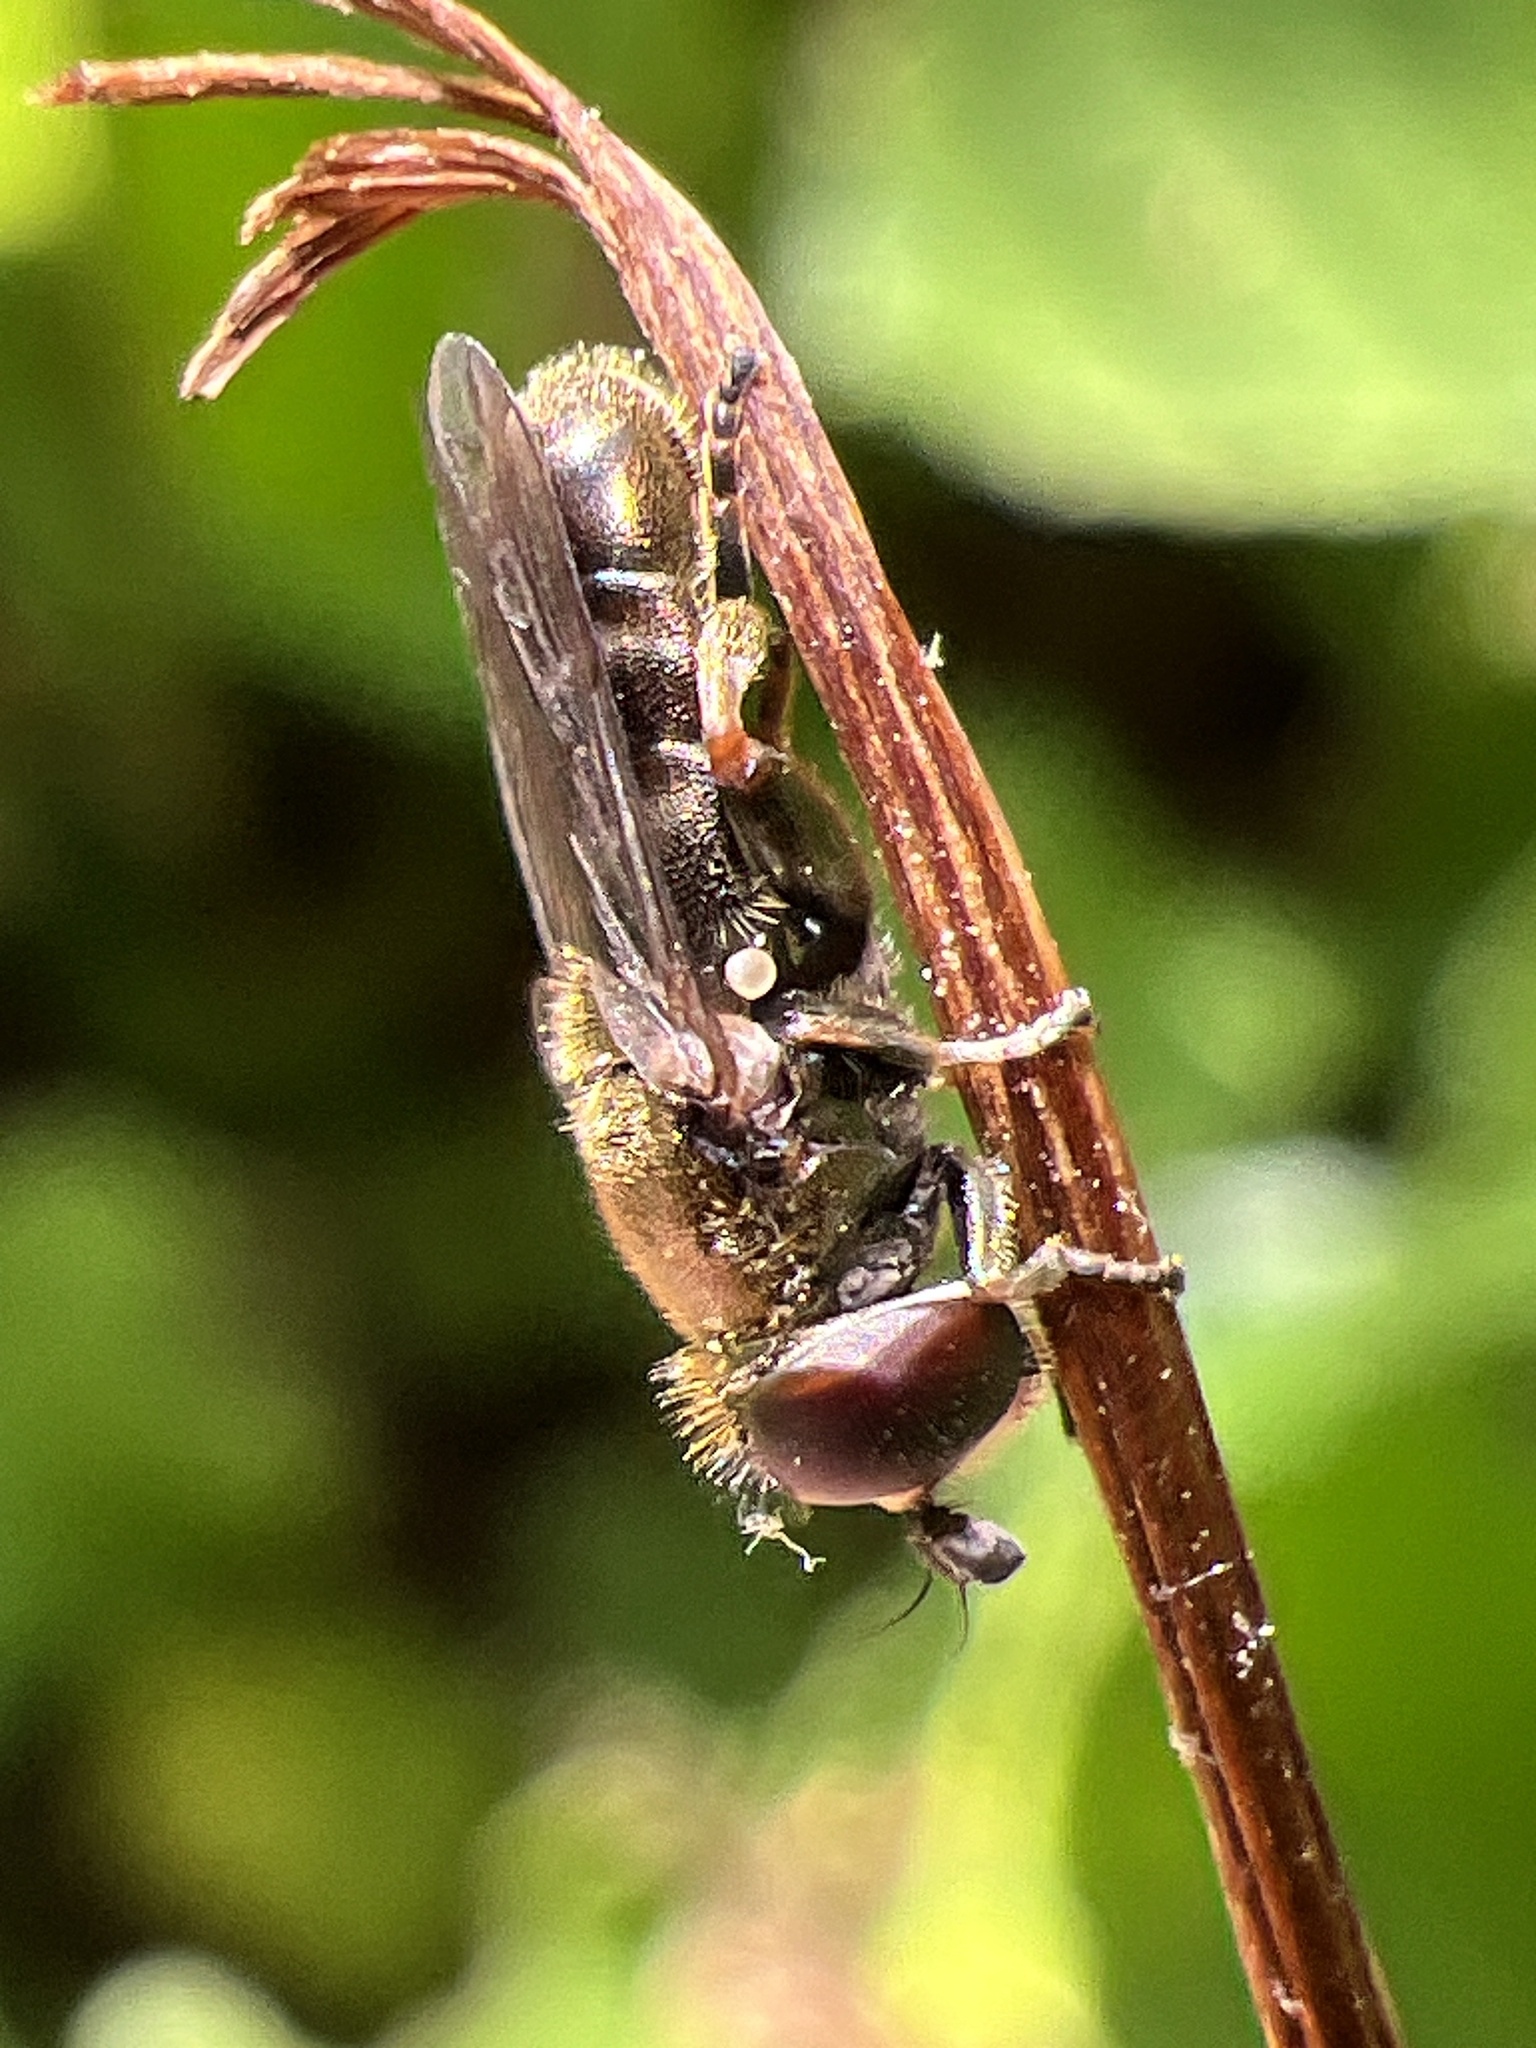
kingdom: Animalia
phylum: Arthropoda
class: Insecta
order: Diptera
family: Syrphidae
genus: Eumerus
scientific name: Eumerus
